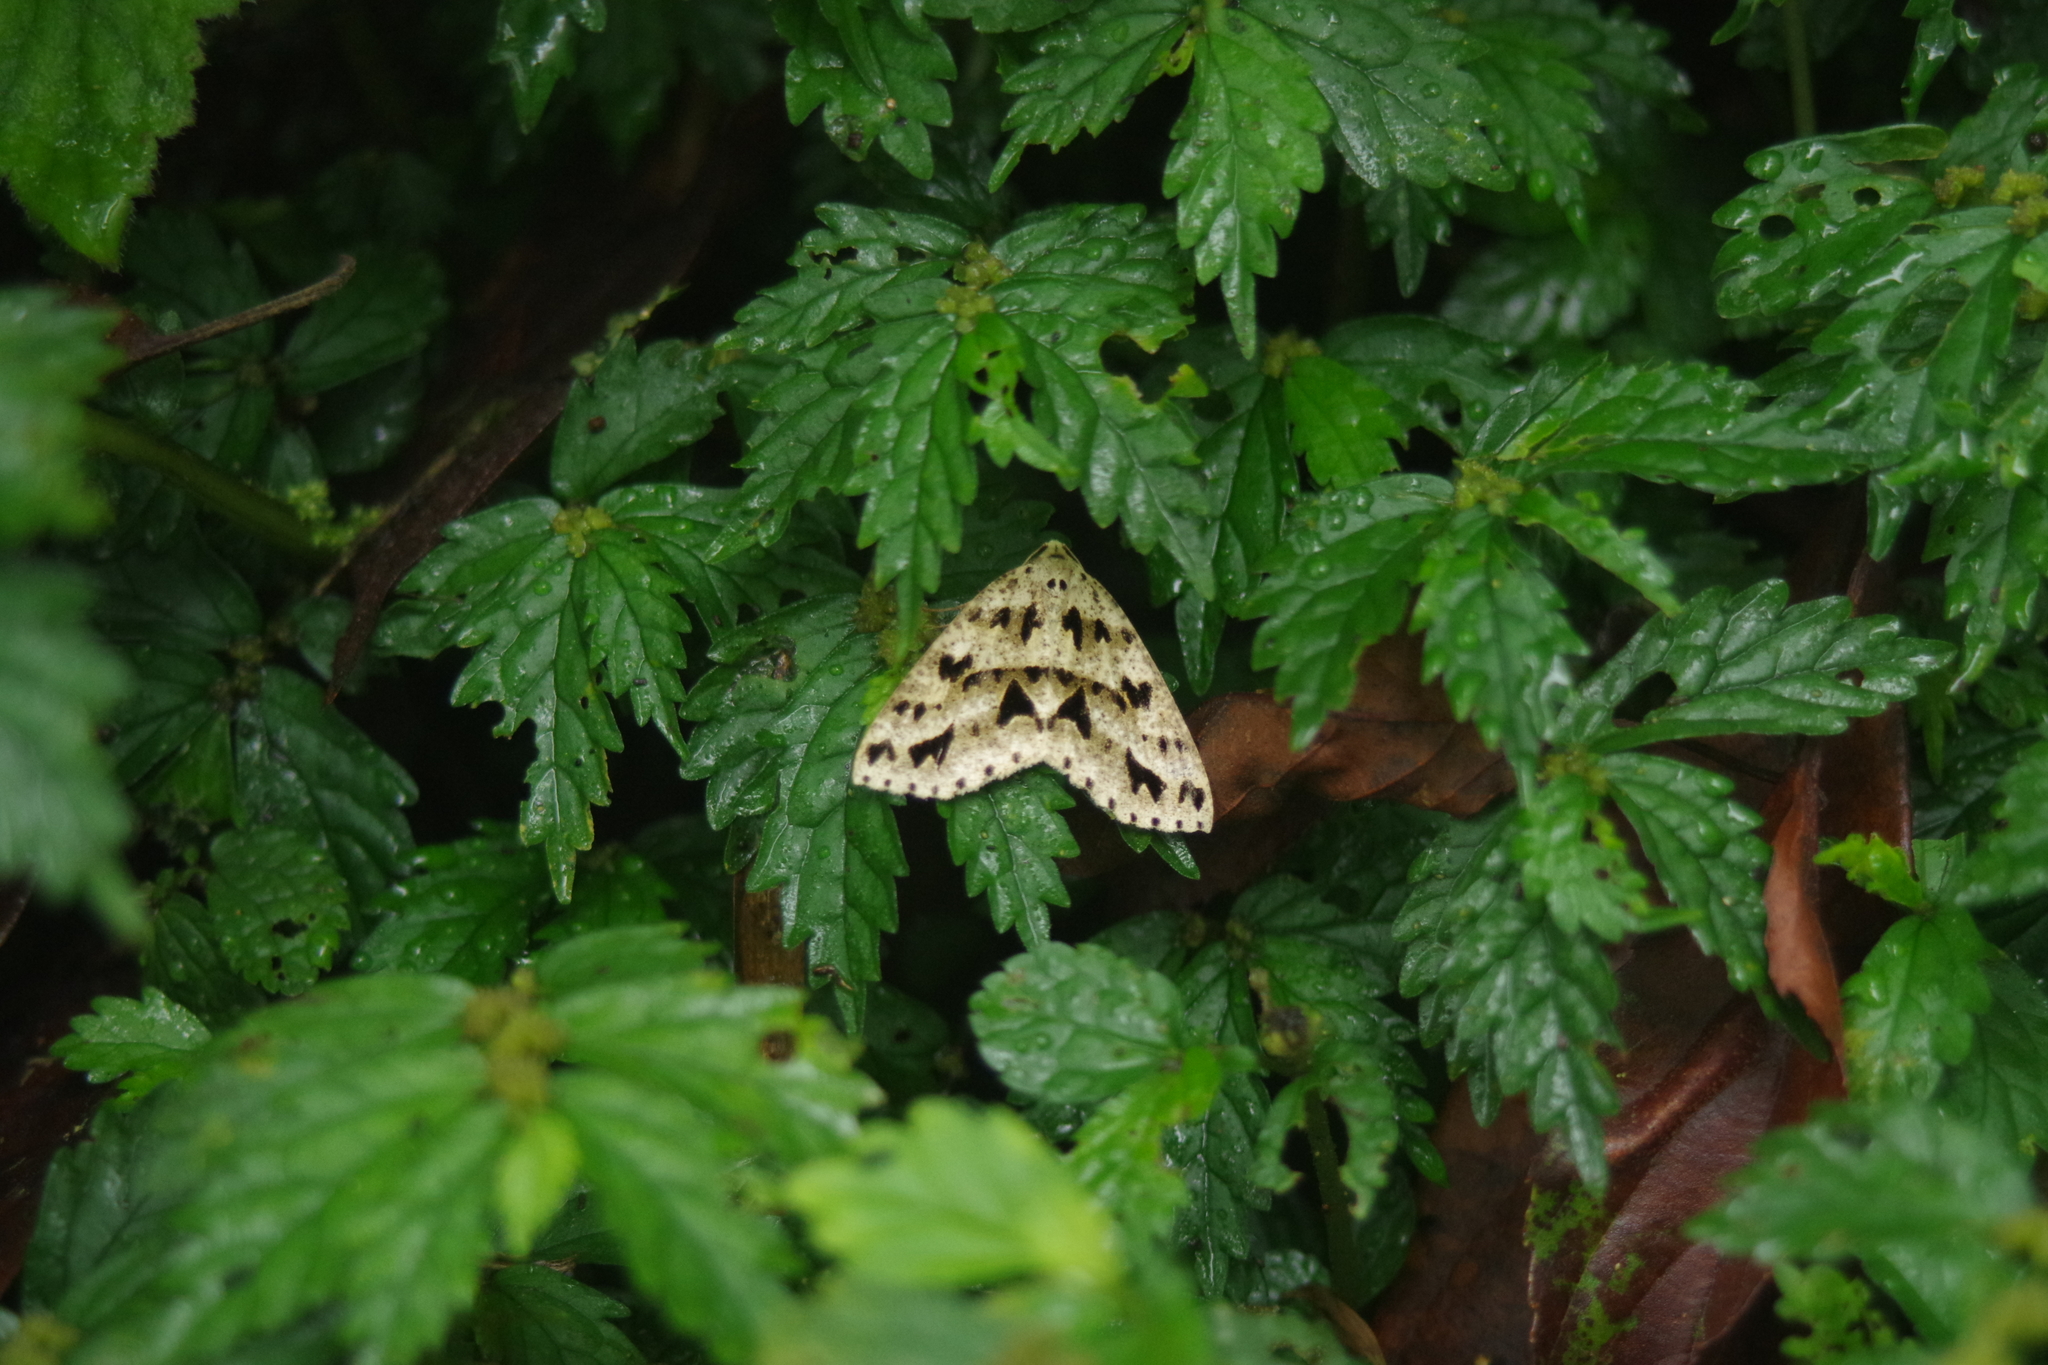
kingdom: Animalia
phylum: Arthropoda
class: Insecta
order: Lepidoptera
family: Geometridae
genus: Psyra
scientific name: Psyra conferta
